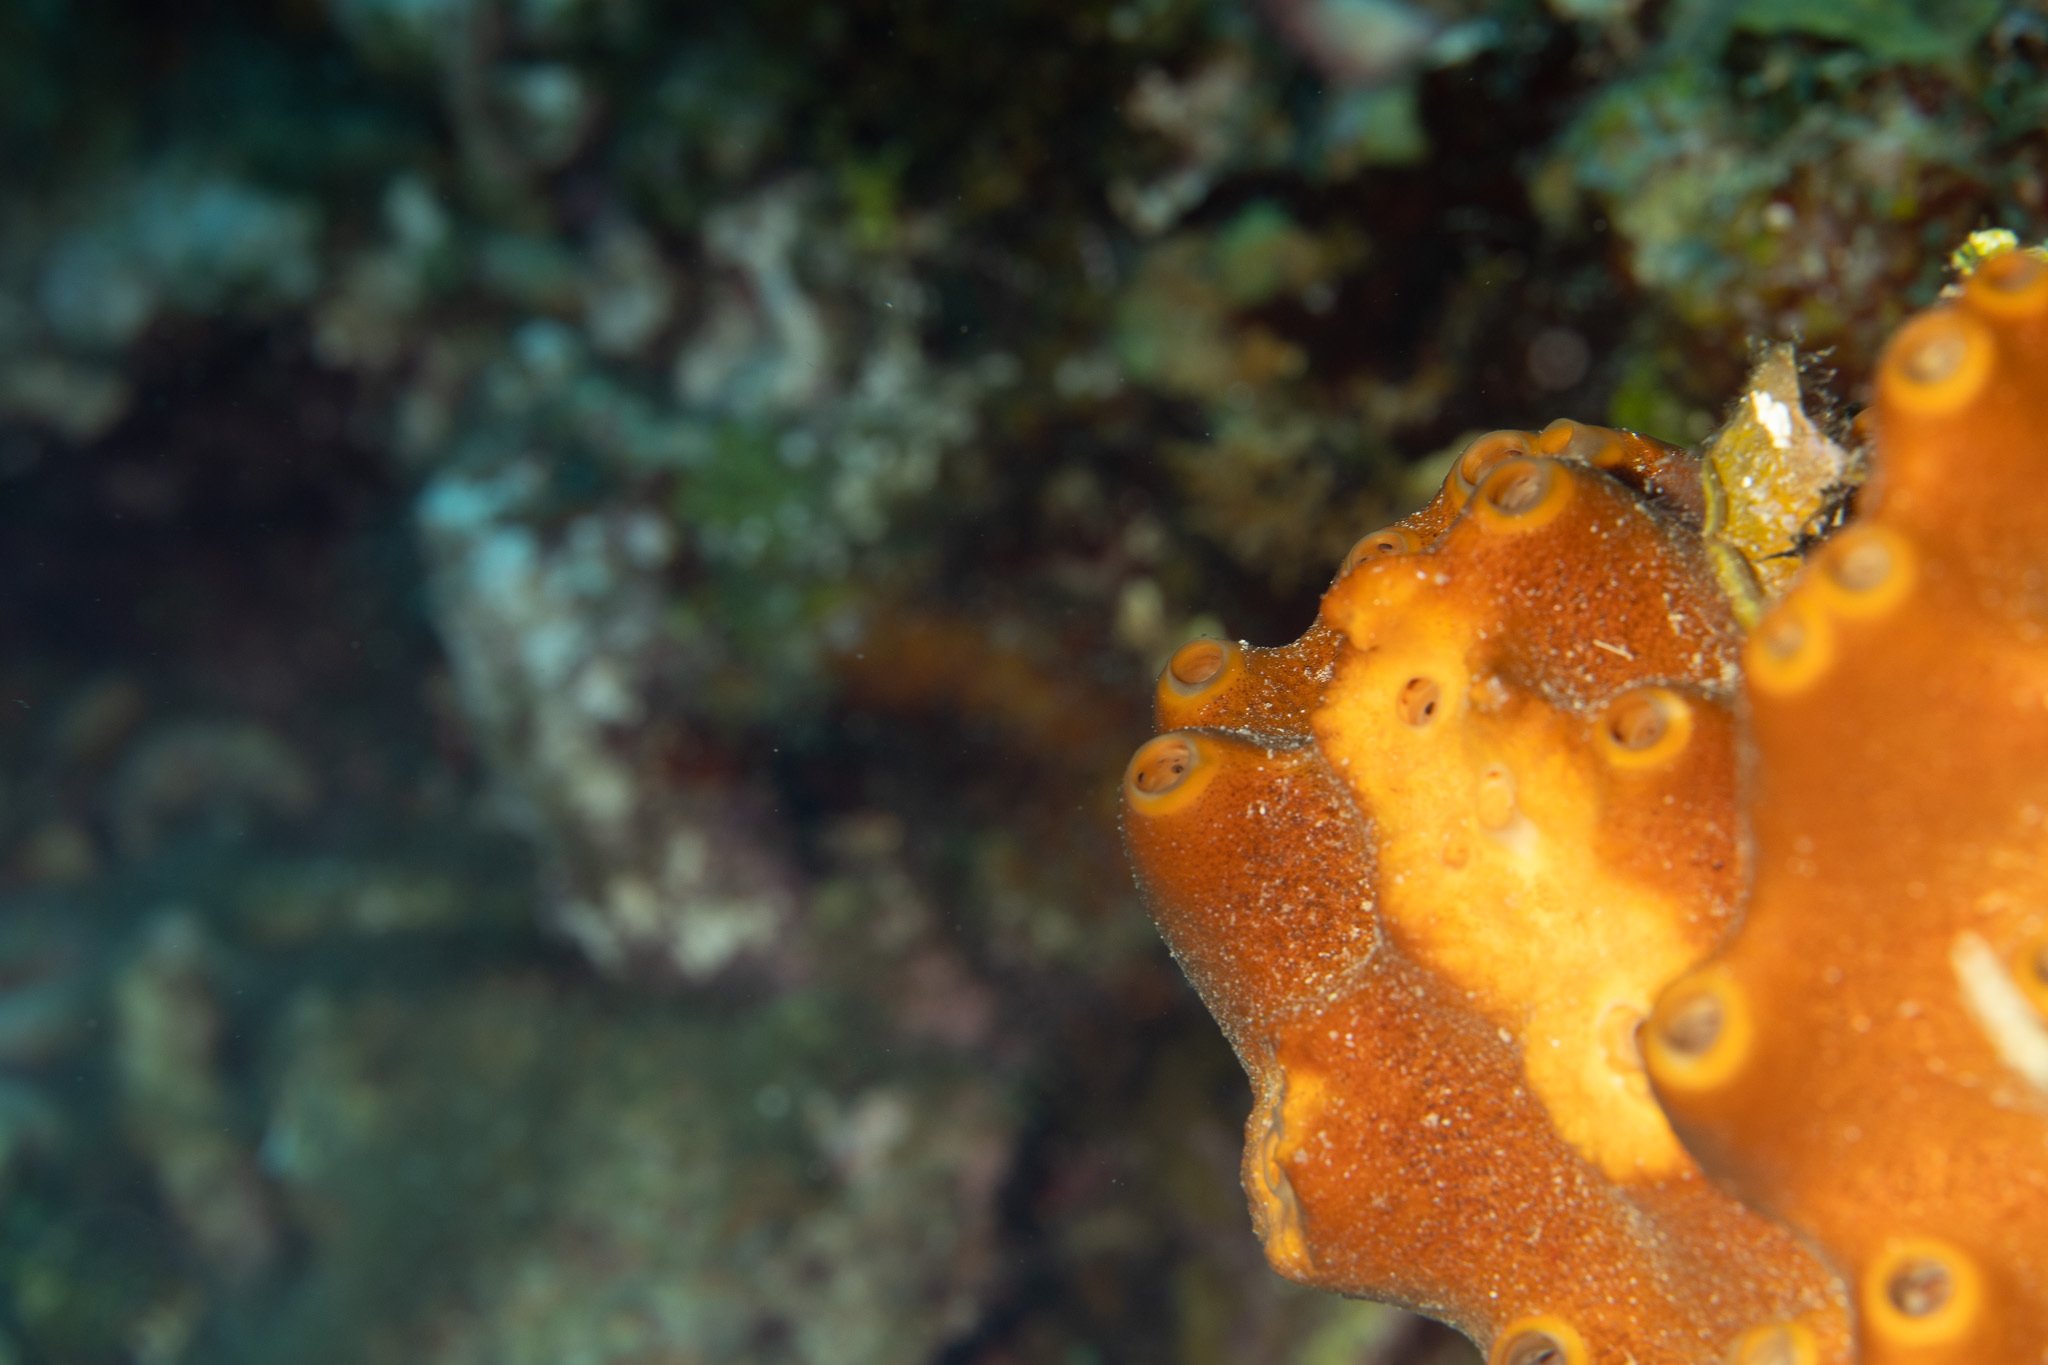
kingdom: Animalia
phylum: Porifera
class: Demospongiae
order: Axinellida
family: Raspailiidae
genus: Ectyoplasia
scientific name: Ectyoplasia ferox
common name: Brown encrusting octopus sponge
